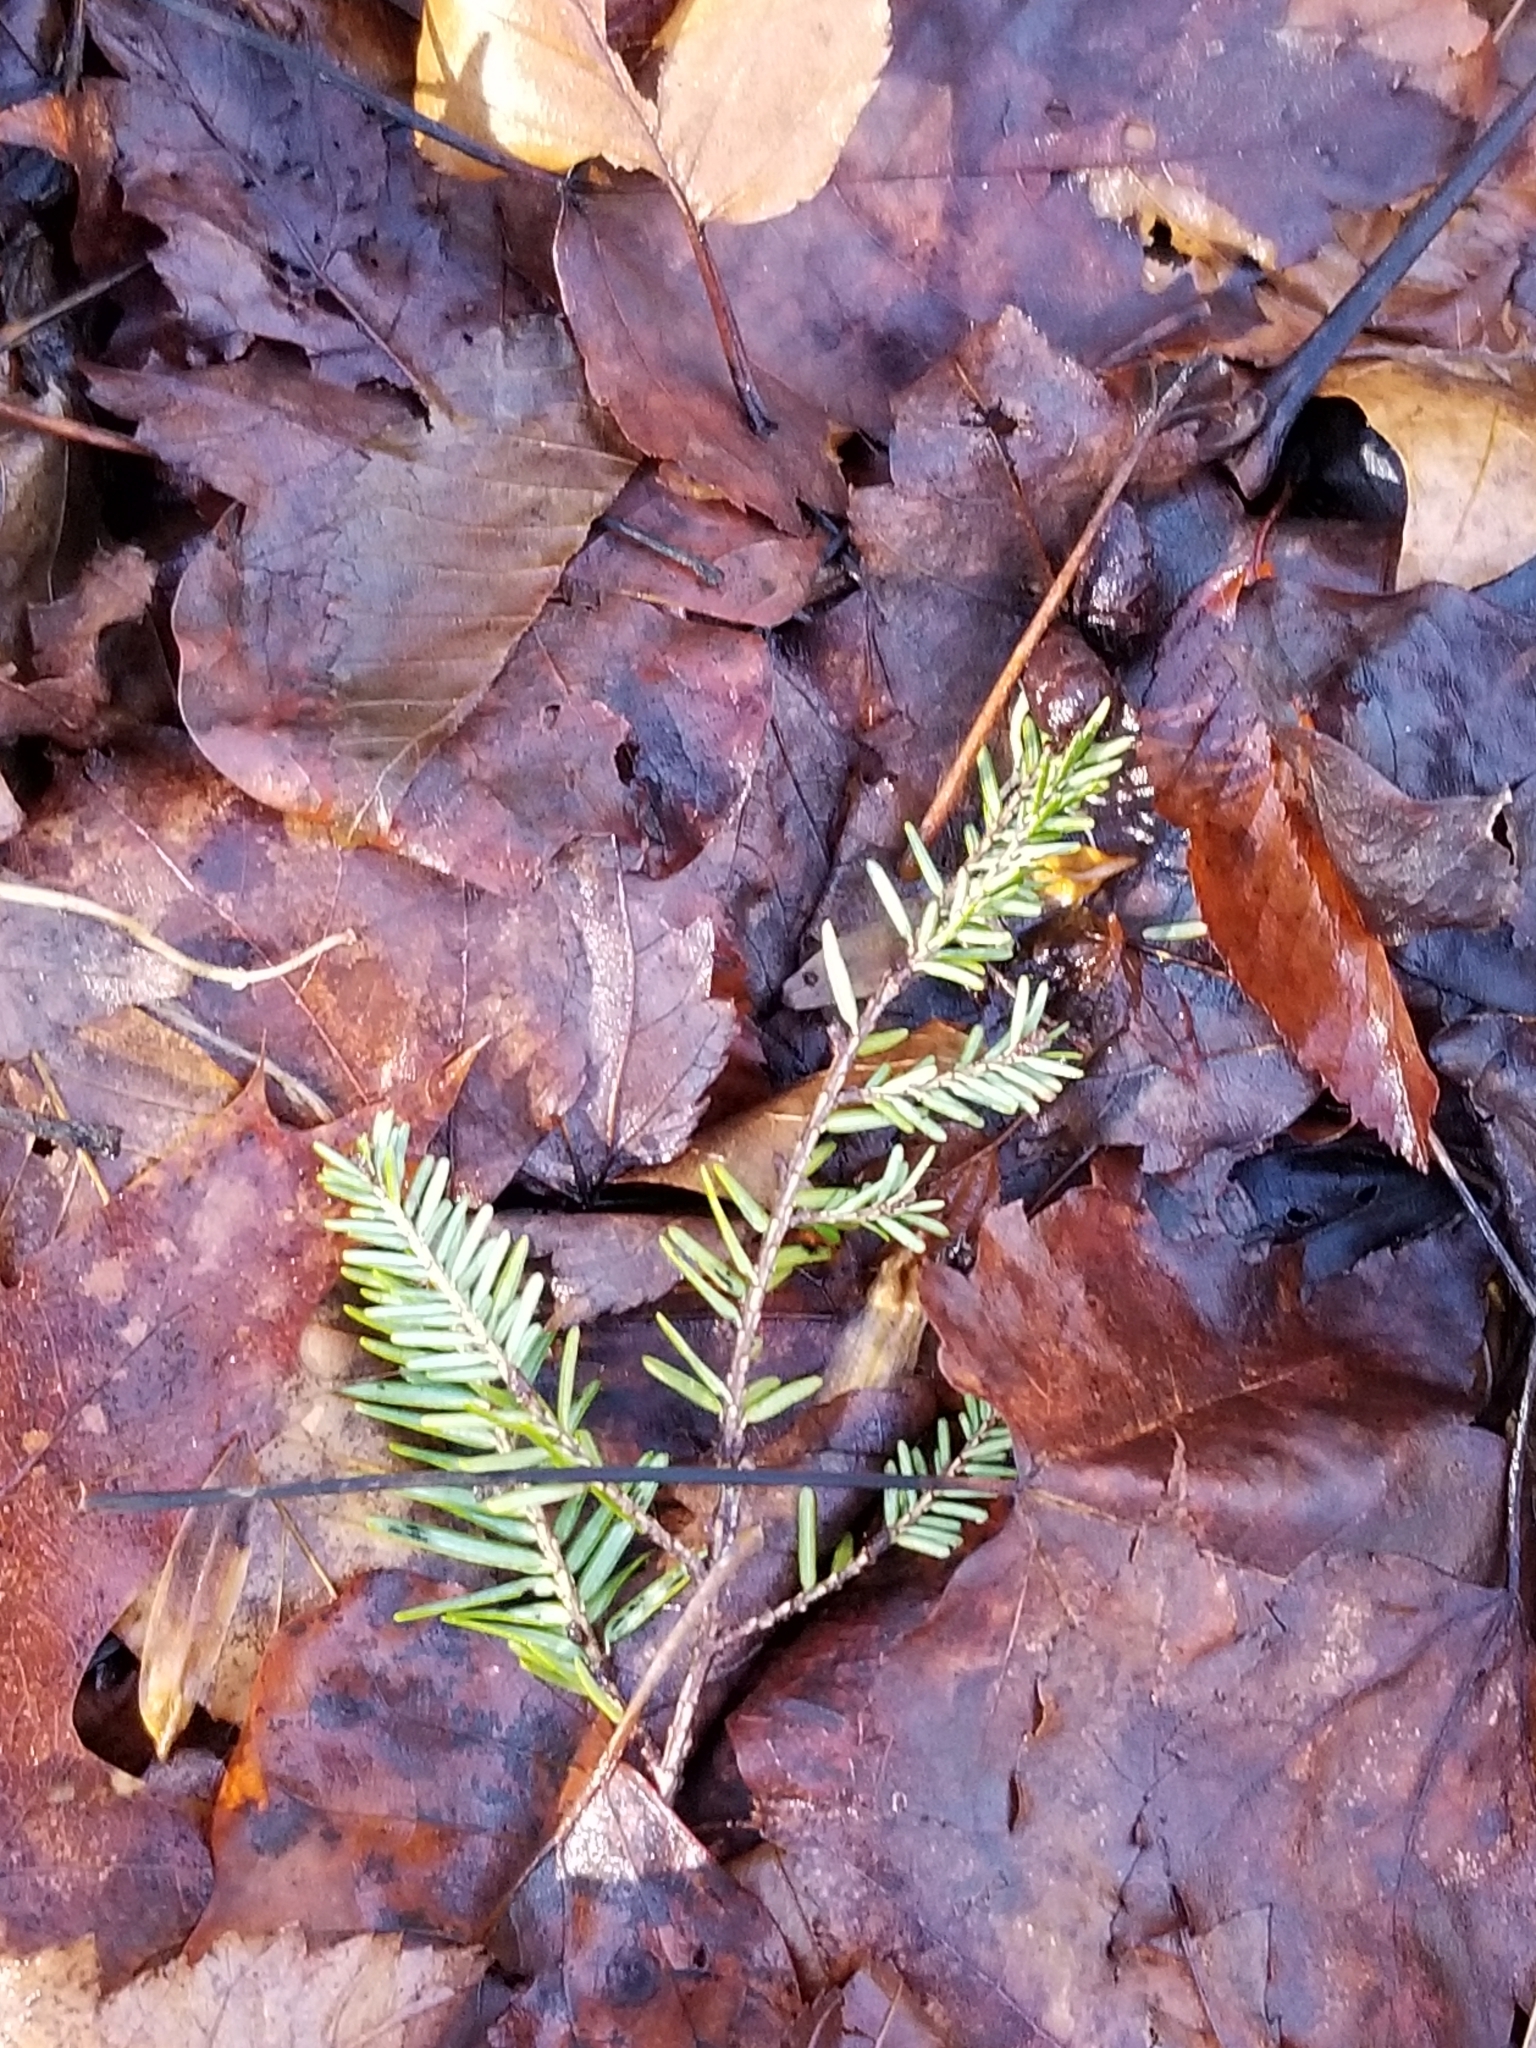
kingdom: Plantae
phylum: Tracheophyta
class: Pinopsida
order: Pinales
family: Pinaceae
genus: Tsuga
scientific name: Tsuga canadensis
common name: Eastern hemlock
